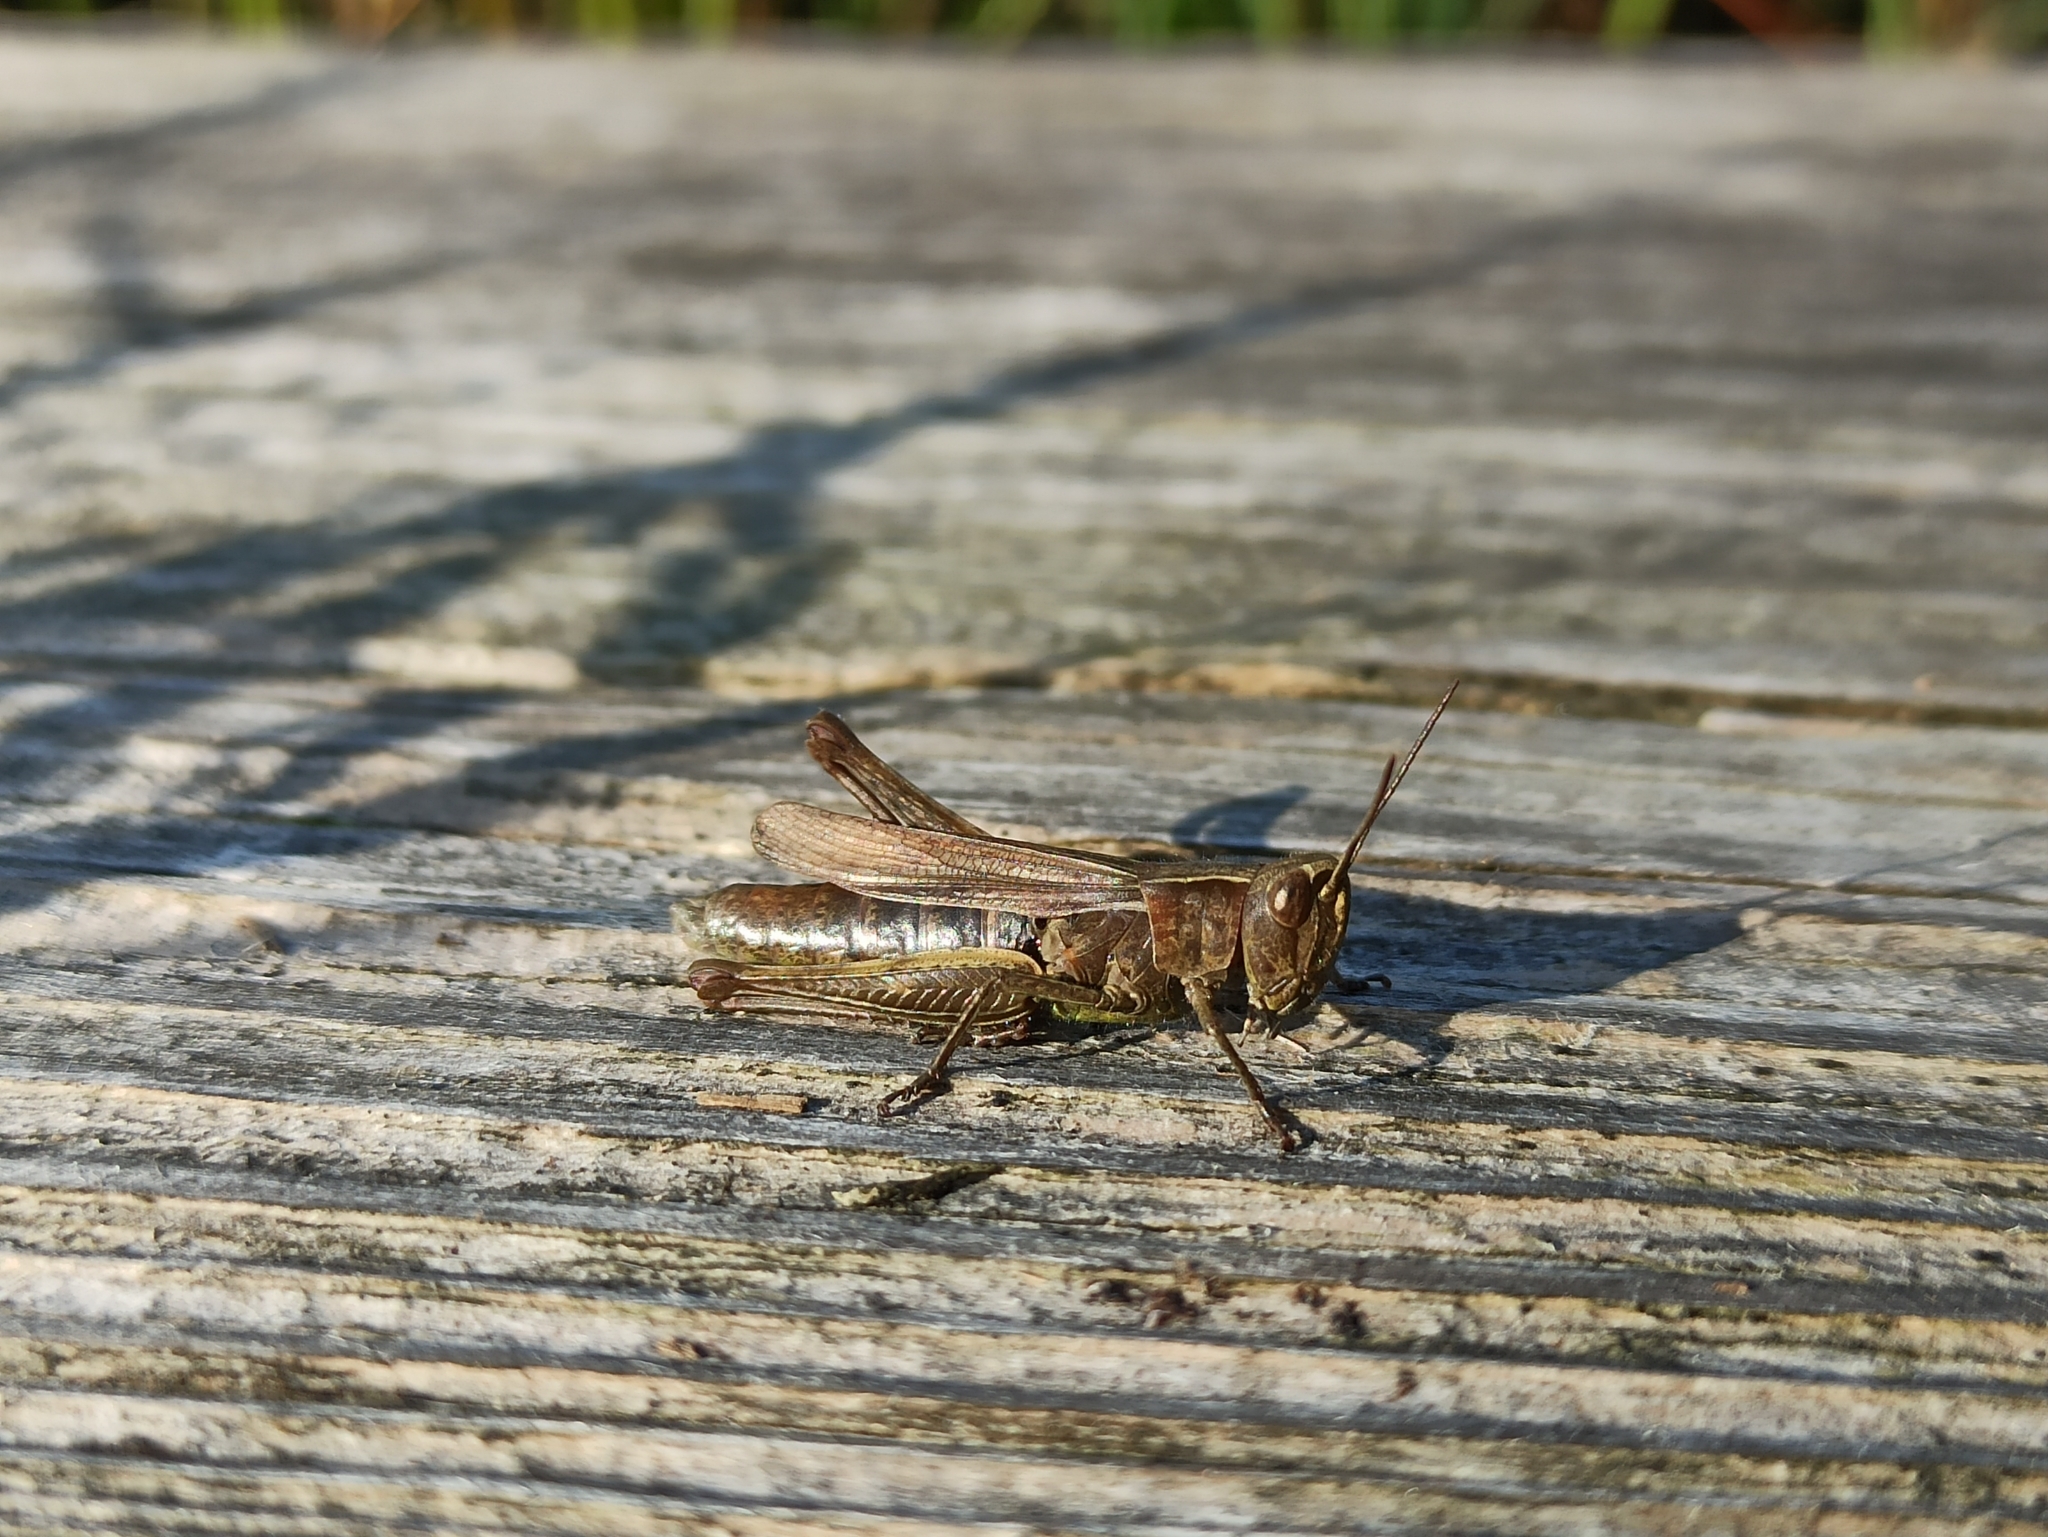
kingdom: Animalia
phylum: Arthropoda
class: Insecta
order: Orthoptera
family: Acrididae
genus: Chorthippus
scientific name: Chorthippus dorsatus
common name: Steppe grasshopper
